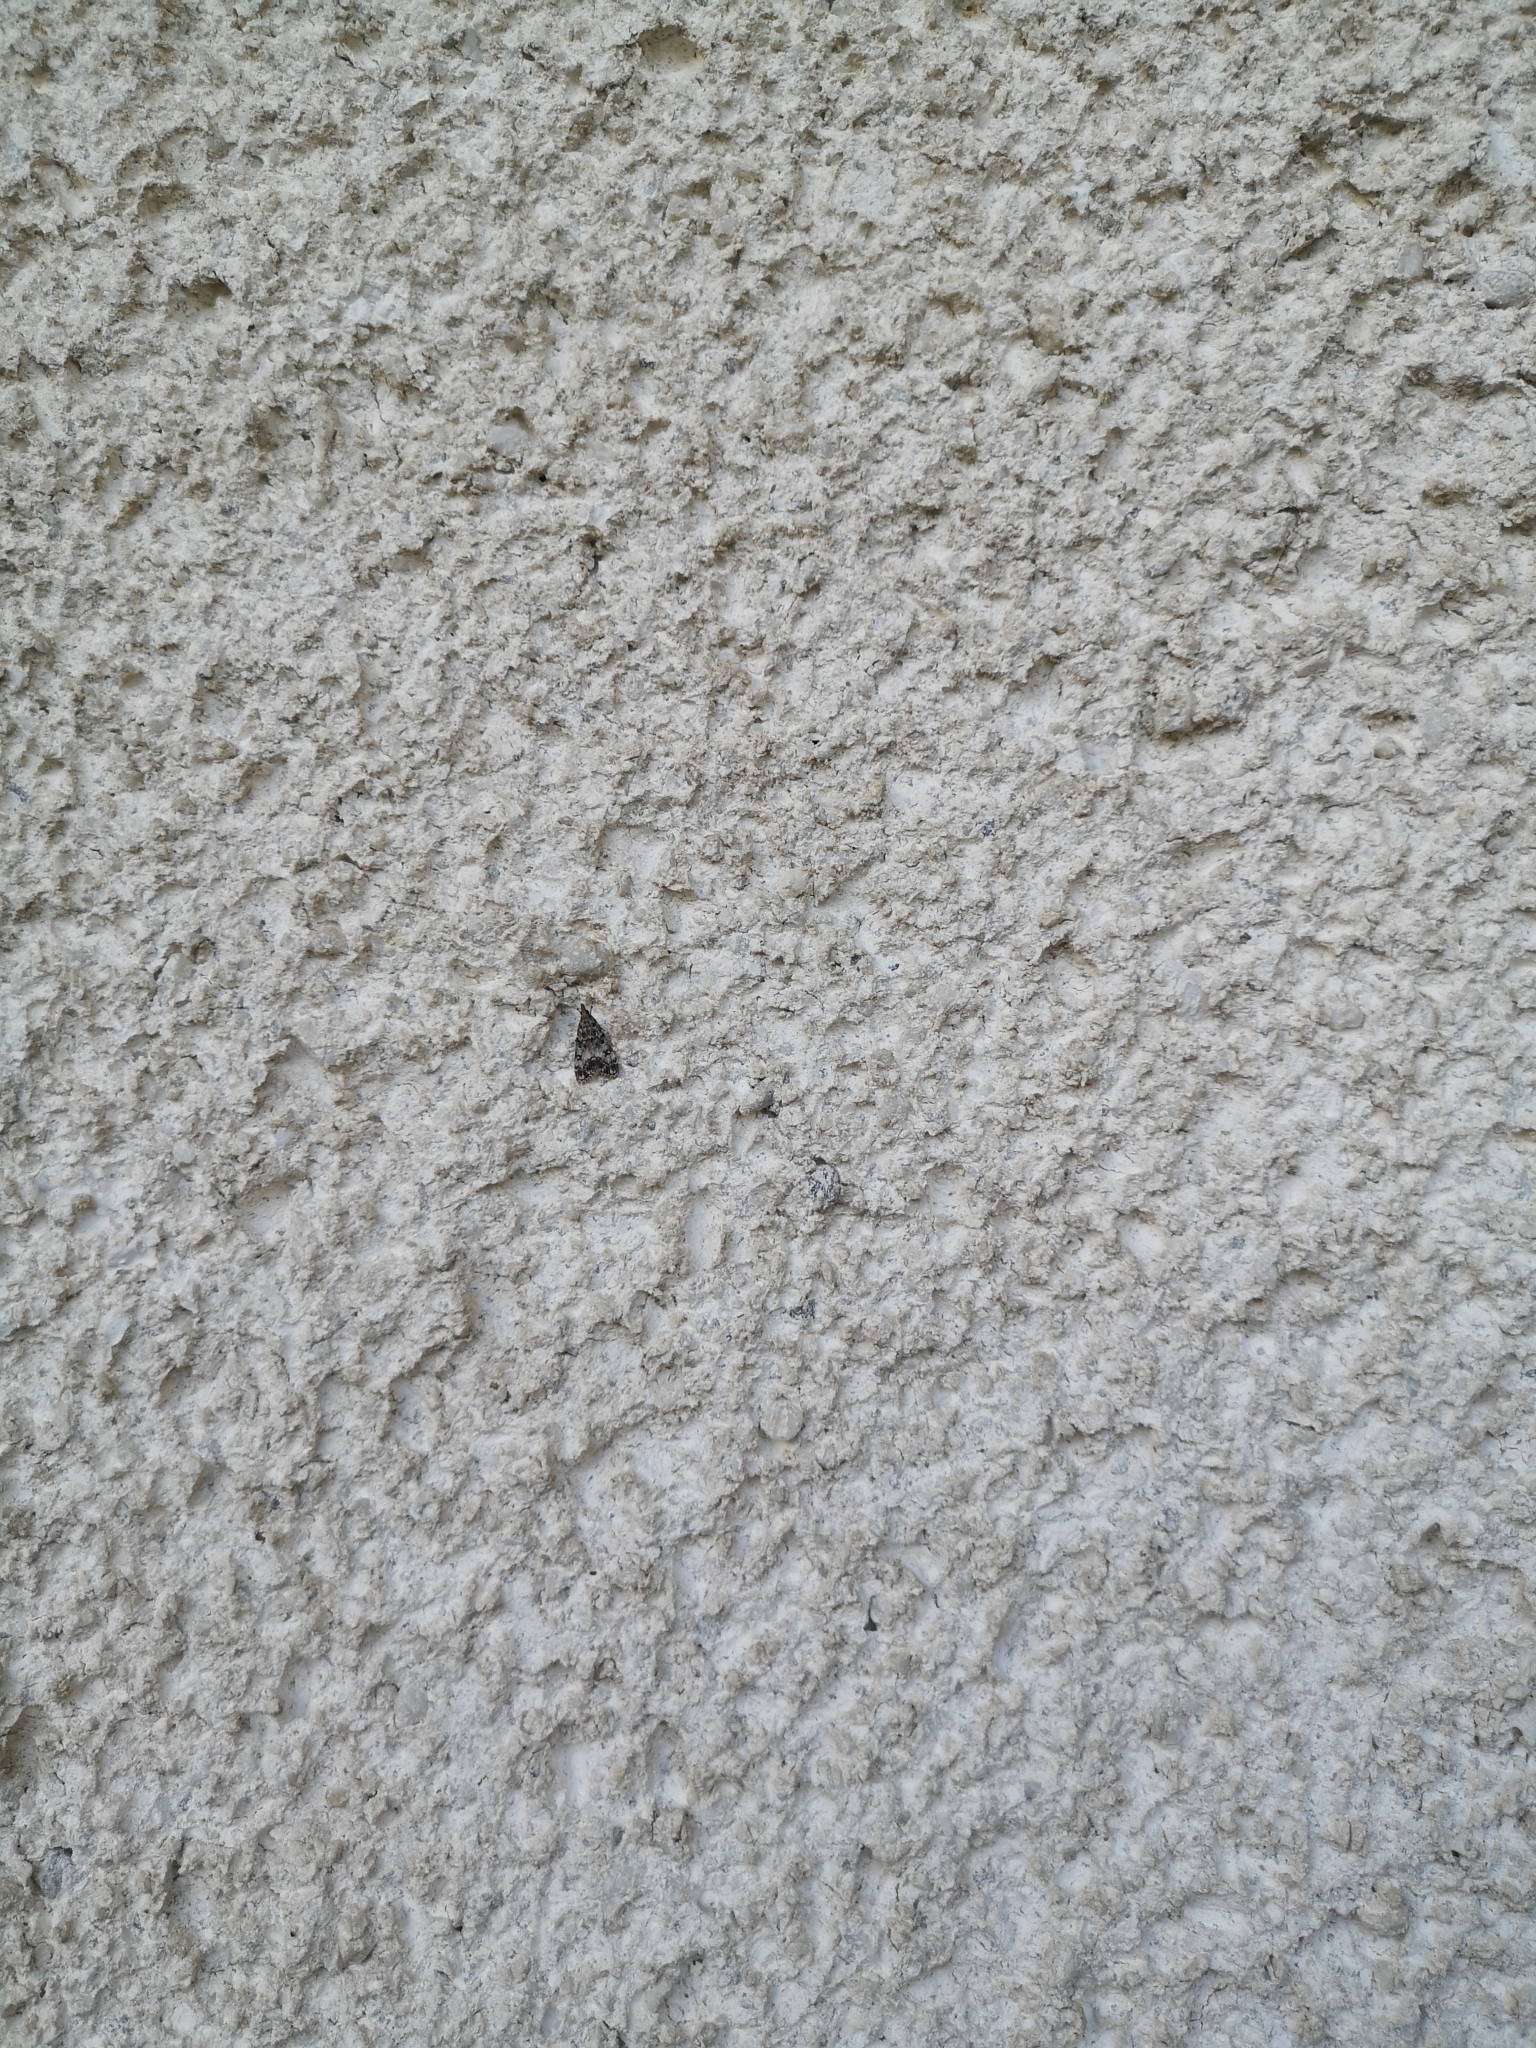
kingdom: Animalia
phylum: Arthropoda
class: Insecta
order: Lepidoptera
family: Crambidae
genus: Eudonia
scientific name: Eudonia lacustrata
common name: Little grey
